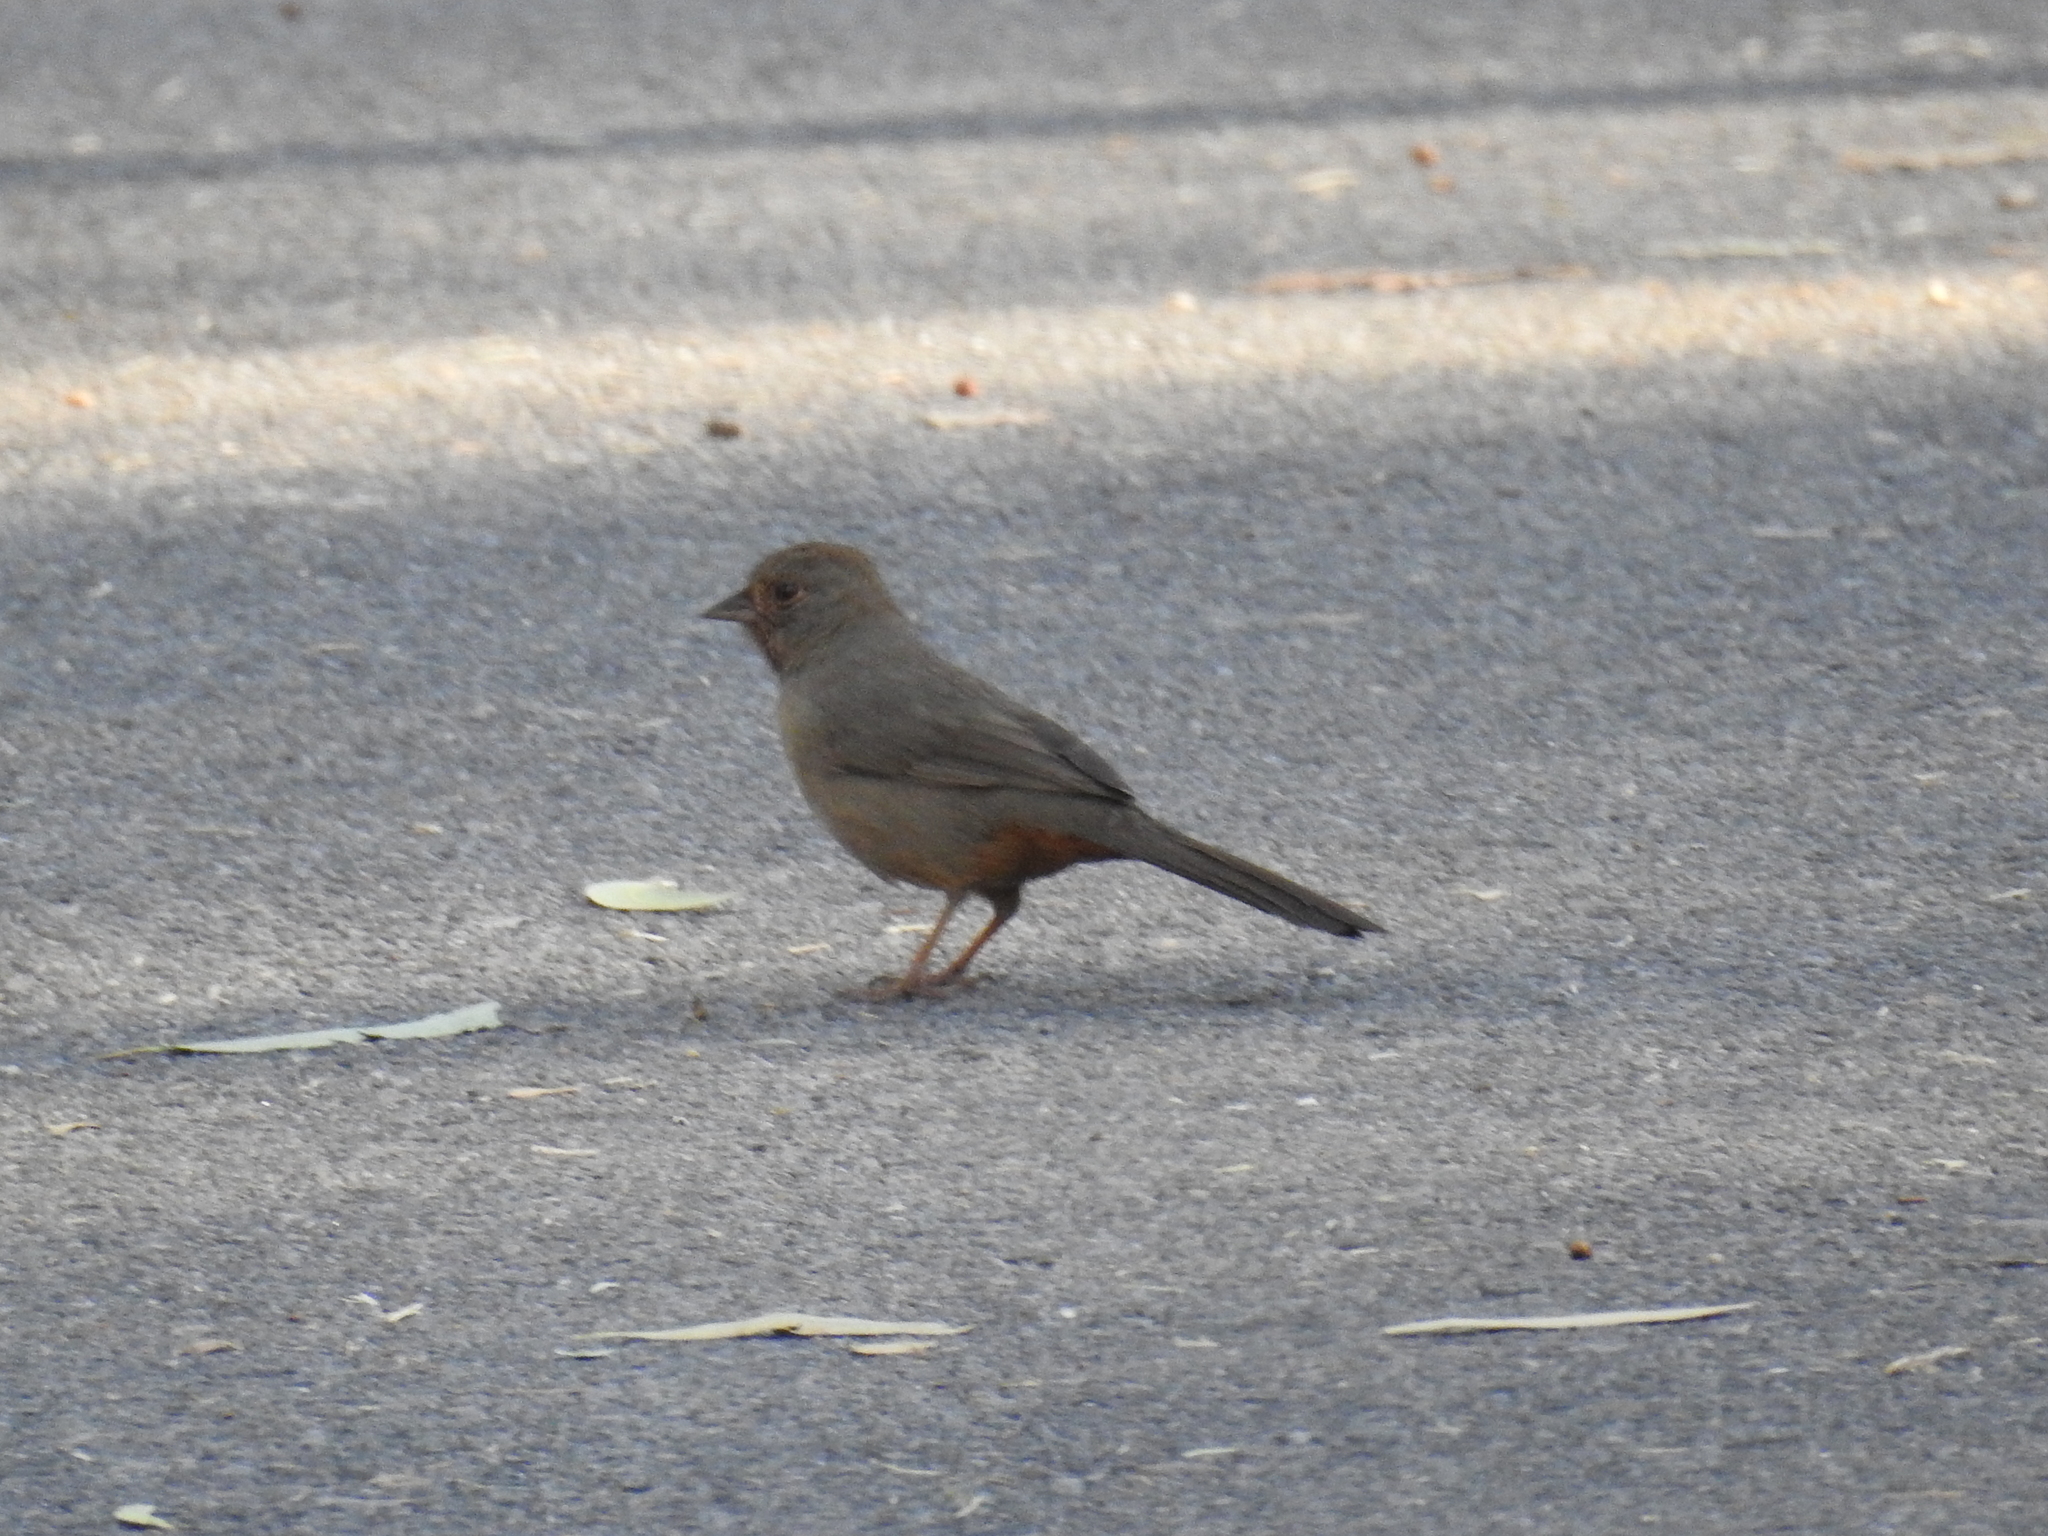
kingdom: Animalia
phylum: Chordata
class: Aves
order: Passeriformes
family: Passerellidae
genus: Melozone
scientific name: Melozone crissalis
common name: California towhee
